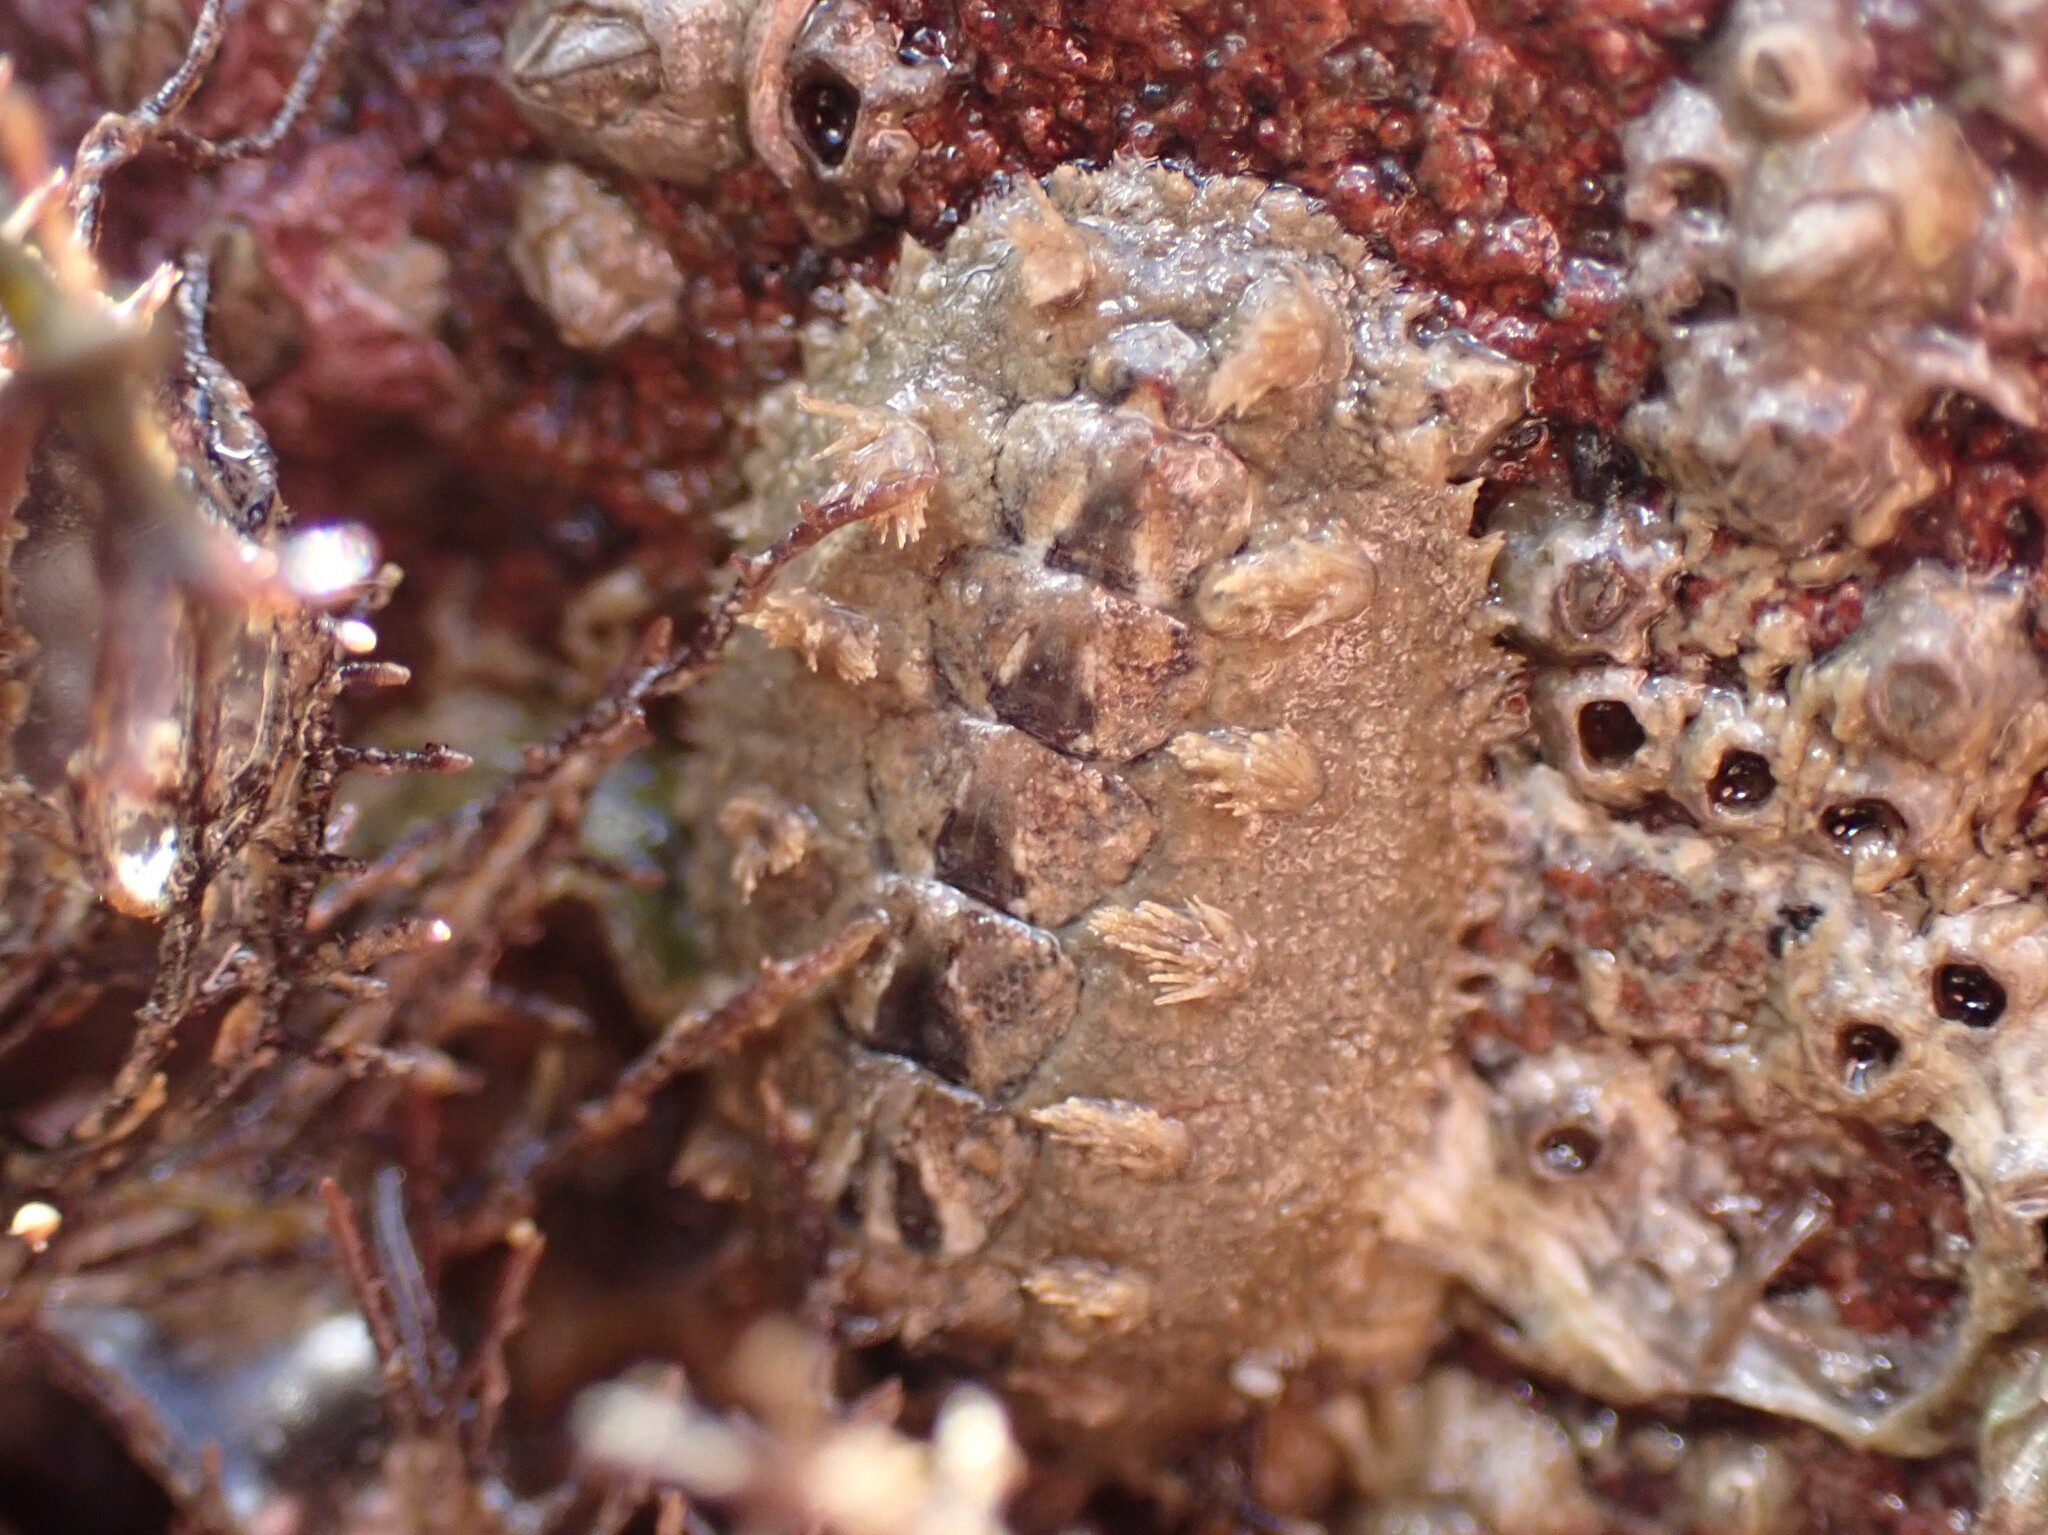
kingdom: Animalia
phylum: Mollusca
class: Polyplacophora
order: Chitonida
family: Acanthochitonidae
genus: Acanthochitona
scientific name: Acanthochitona zelandica
